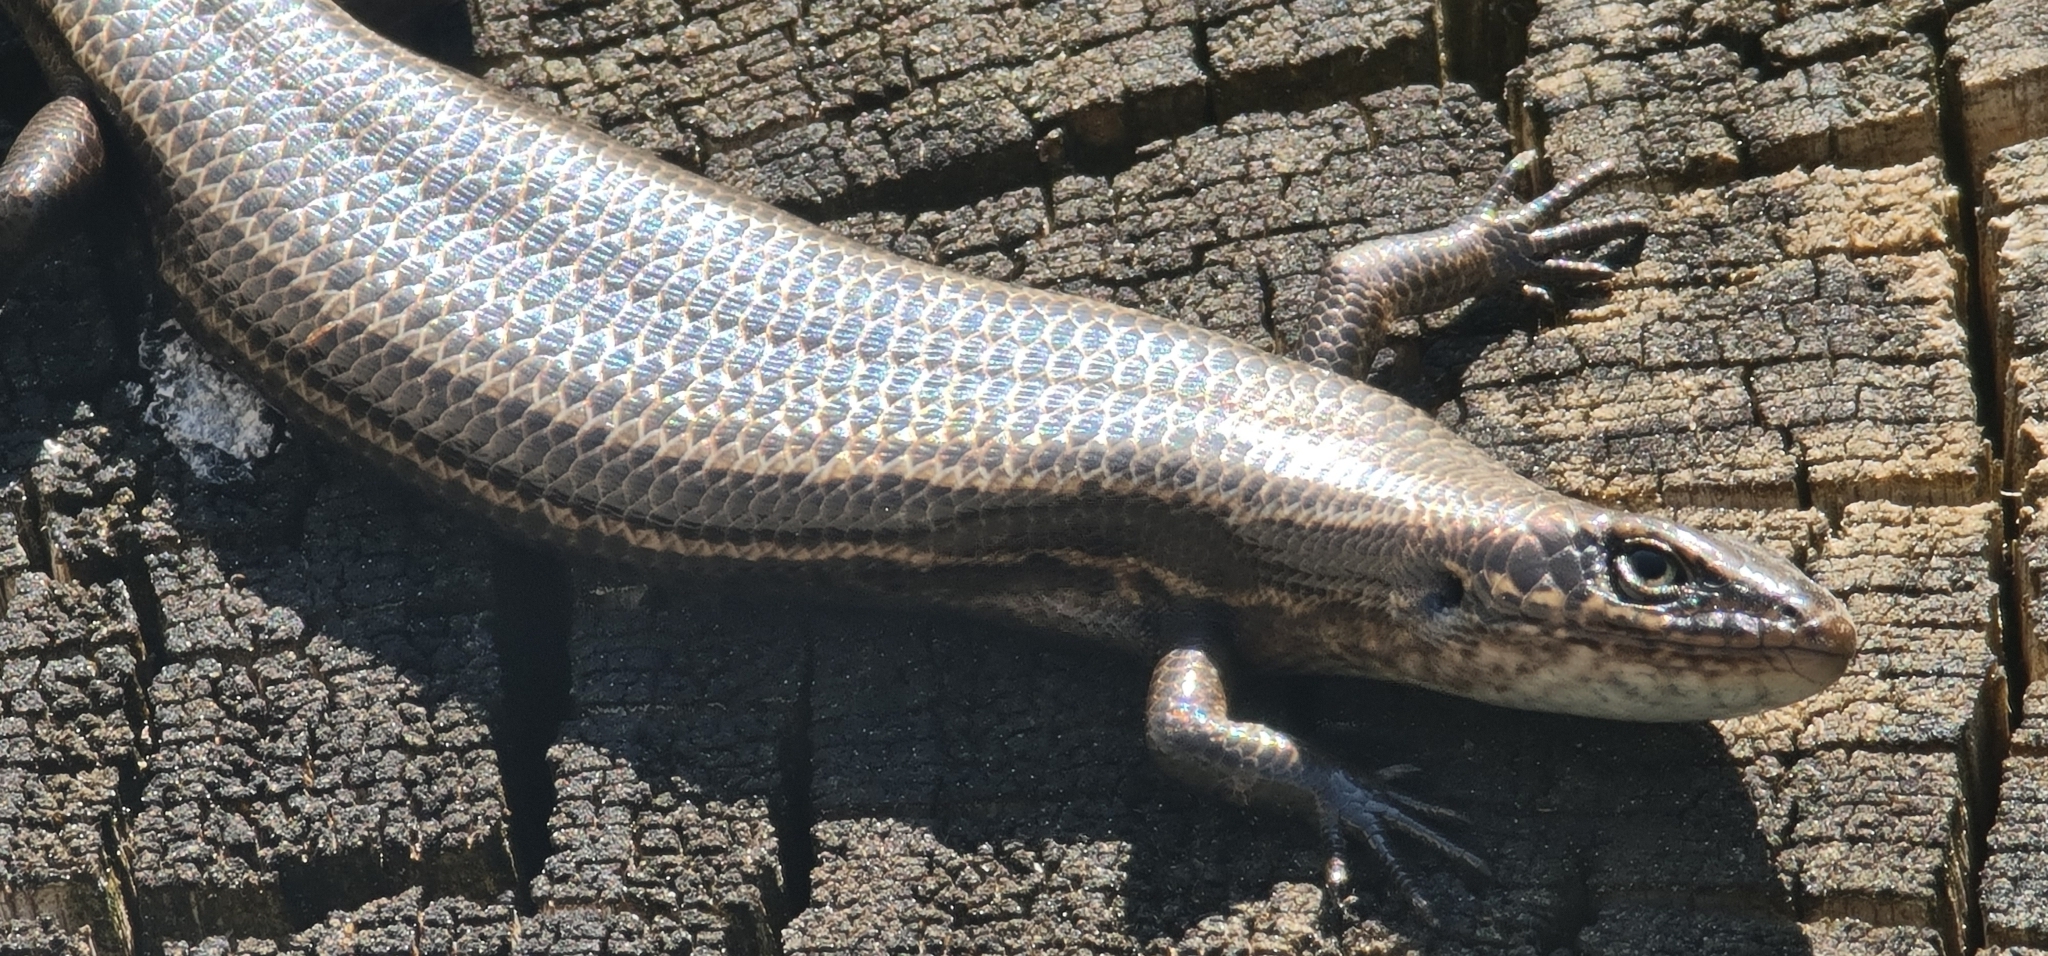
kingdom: Animalia
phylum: Chordata
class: Squamata
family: Scincidae
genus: Pseudemoia
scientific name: Pseudemoia entrecasteauxii
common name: Entrecasteaux's skink
